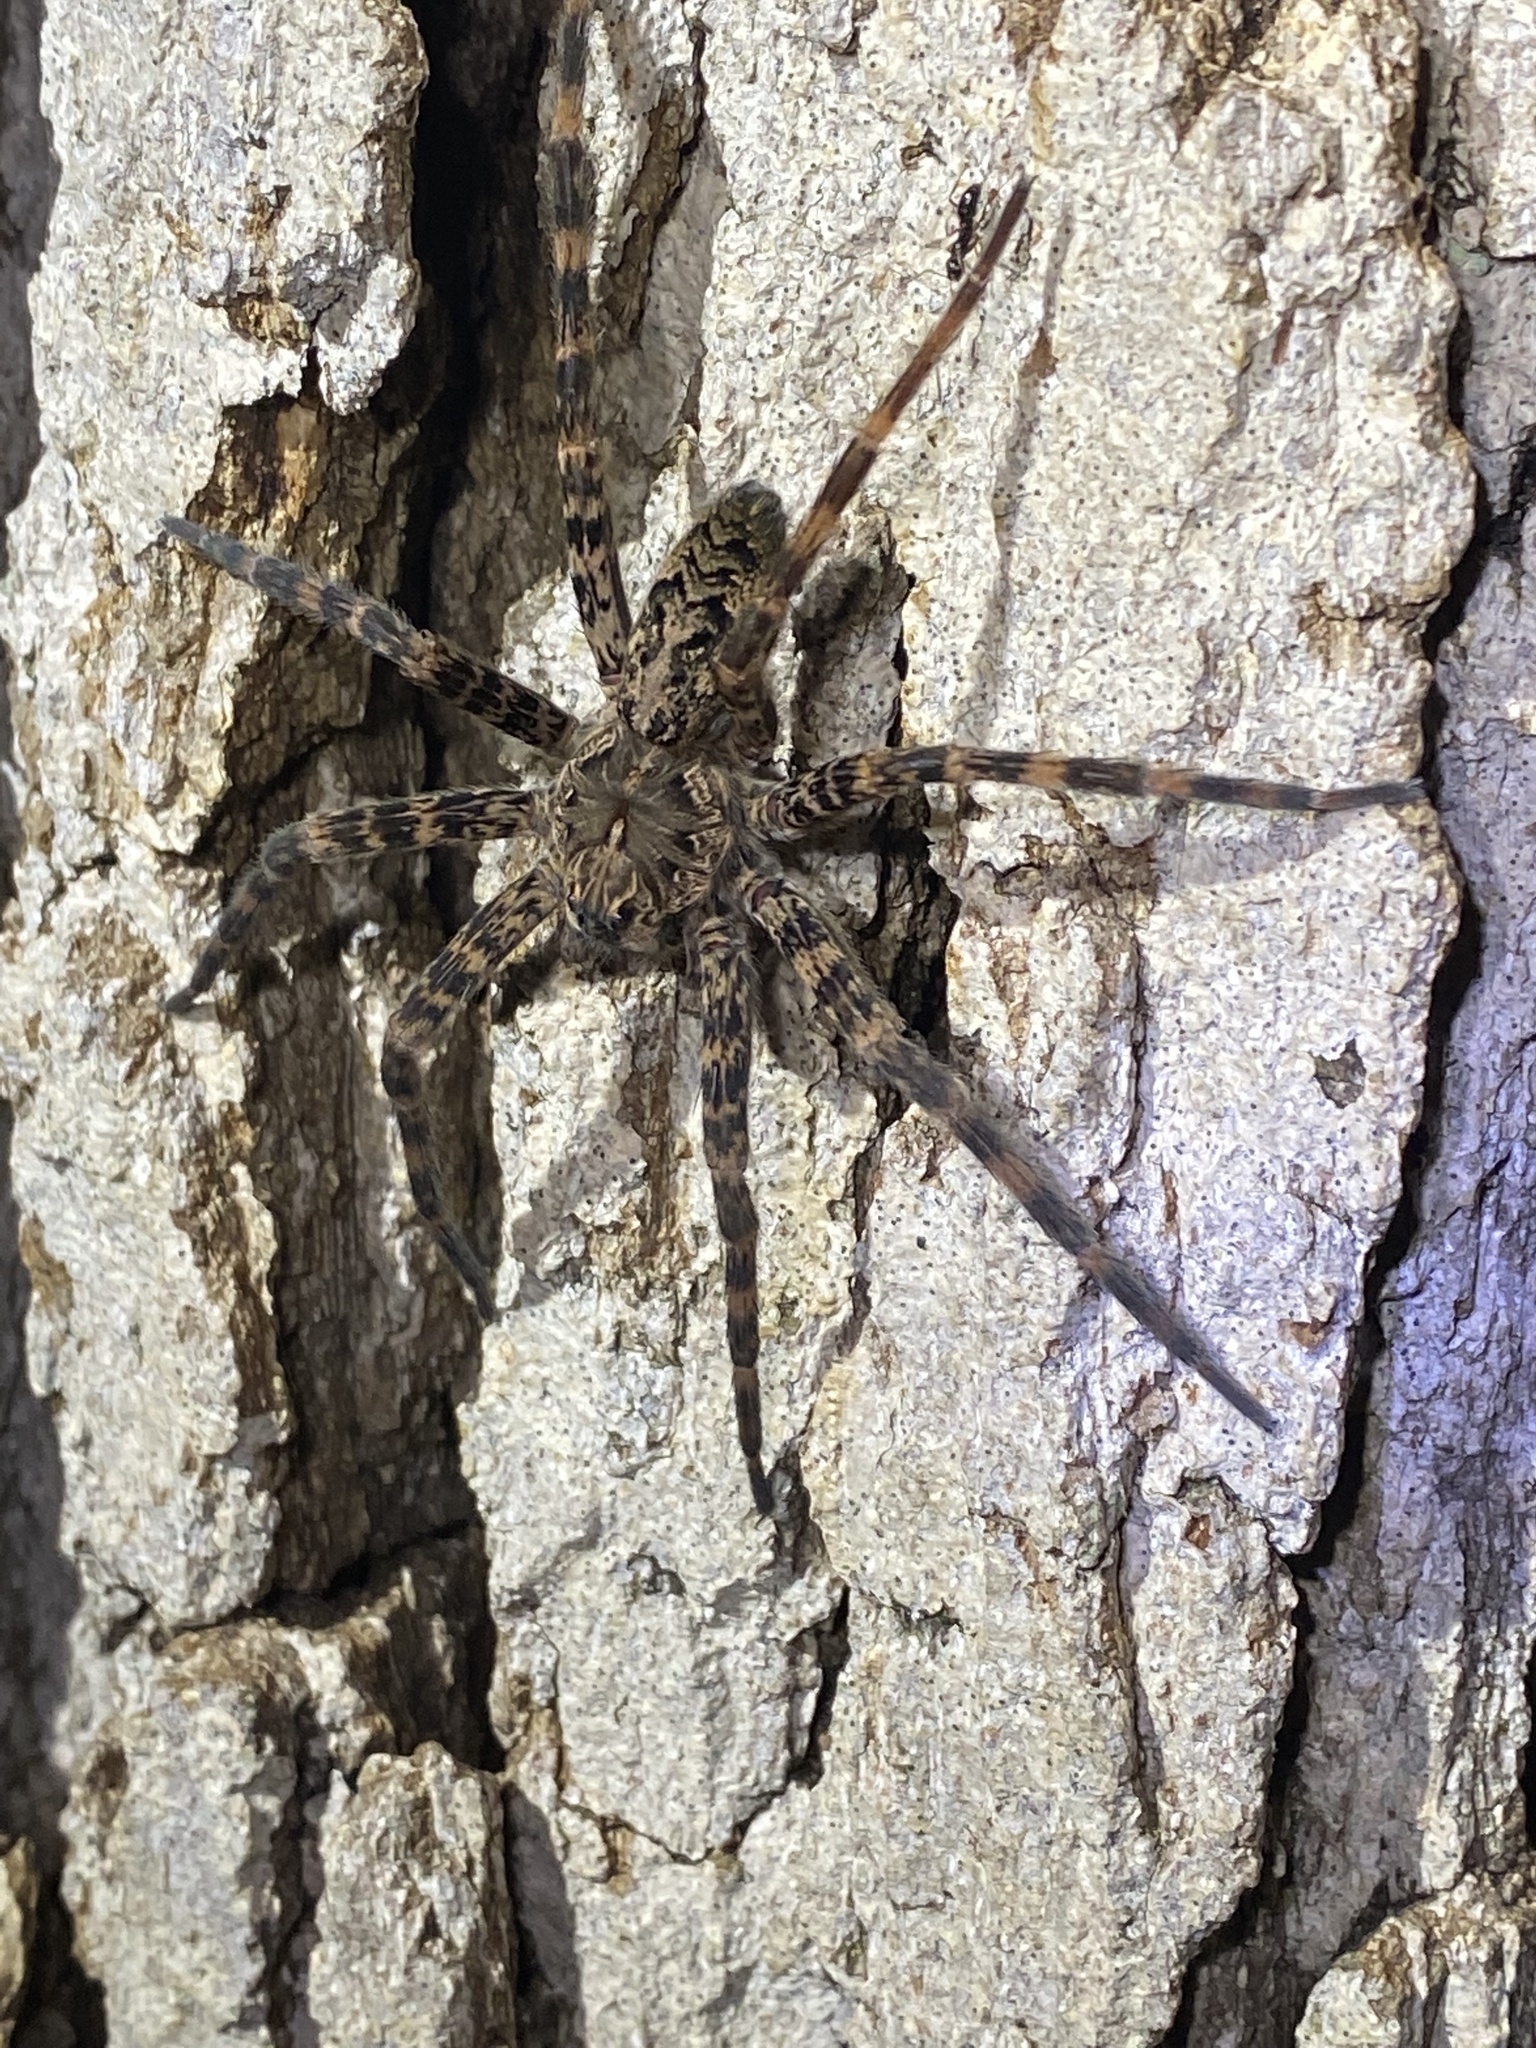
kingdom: Animalia
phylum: Arthropoda
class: Arachnida
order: Araneae
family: Pisauridae
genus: Dolomedes
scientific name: Dolomedes tenebrosus
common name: Dark fishing spider
